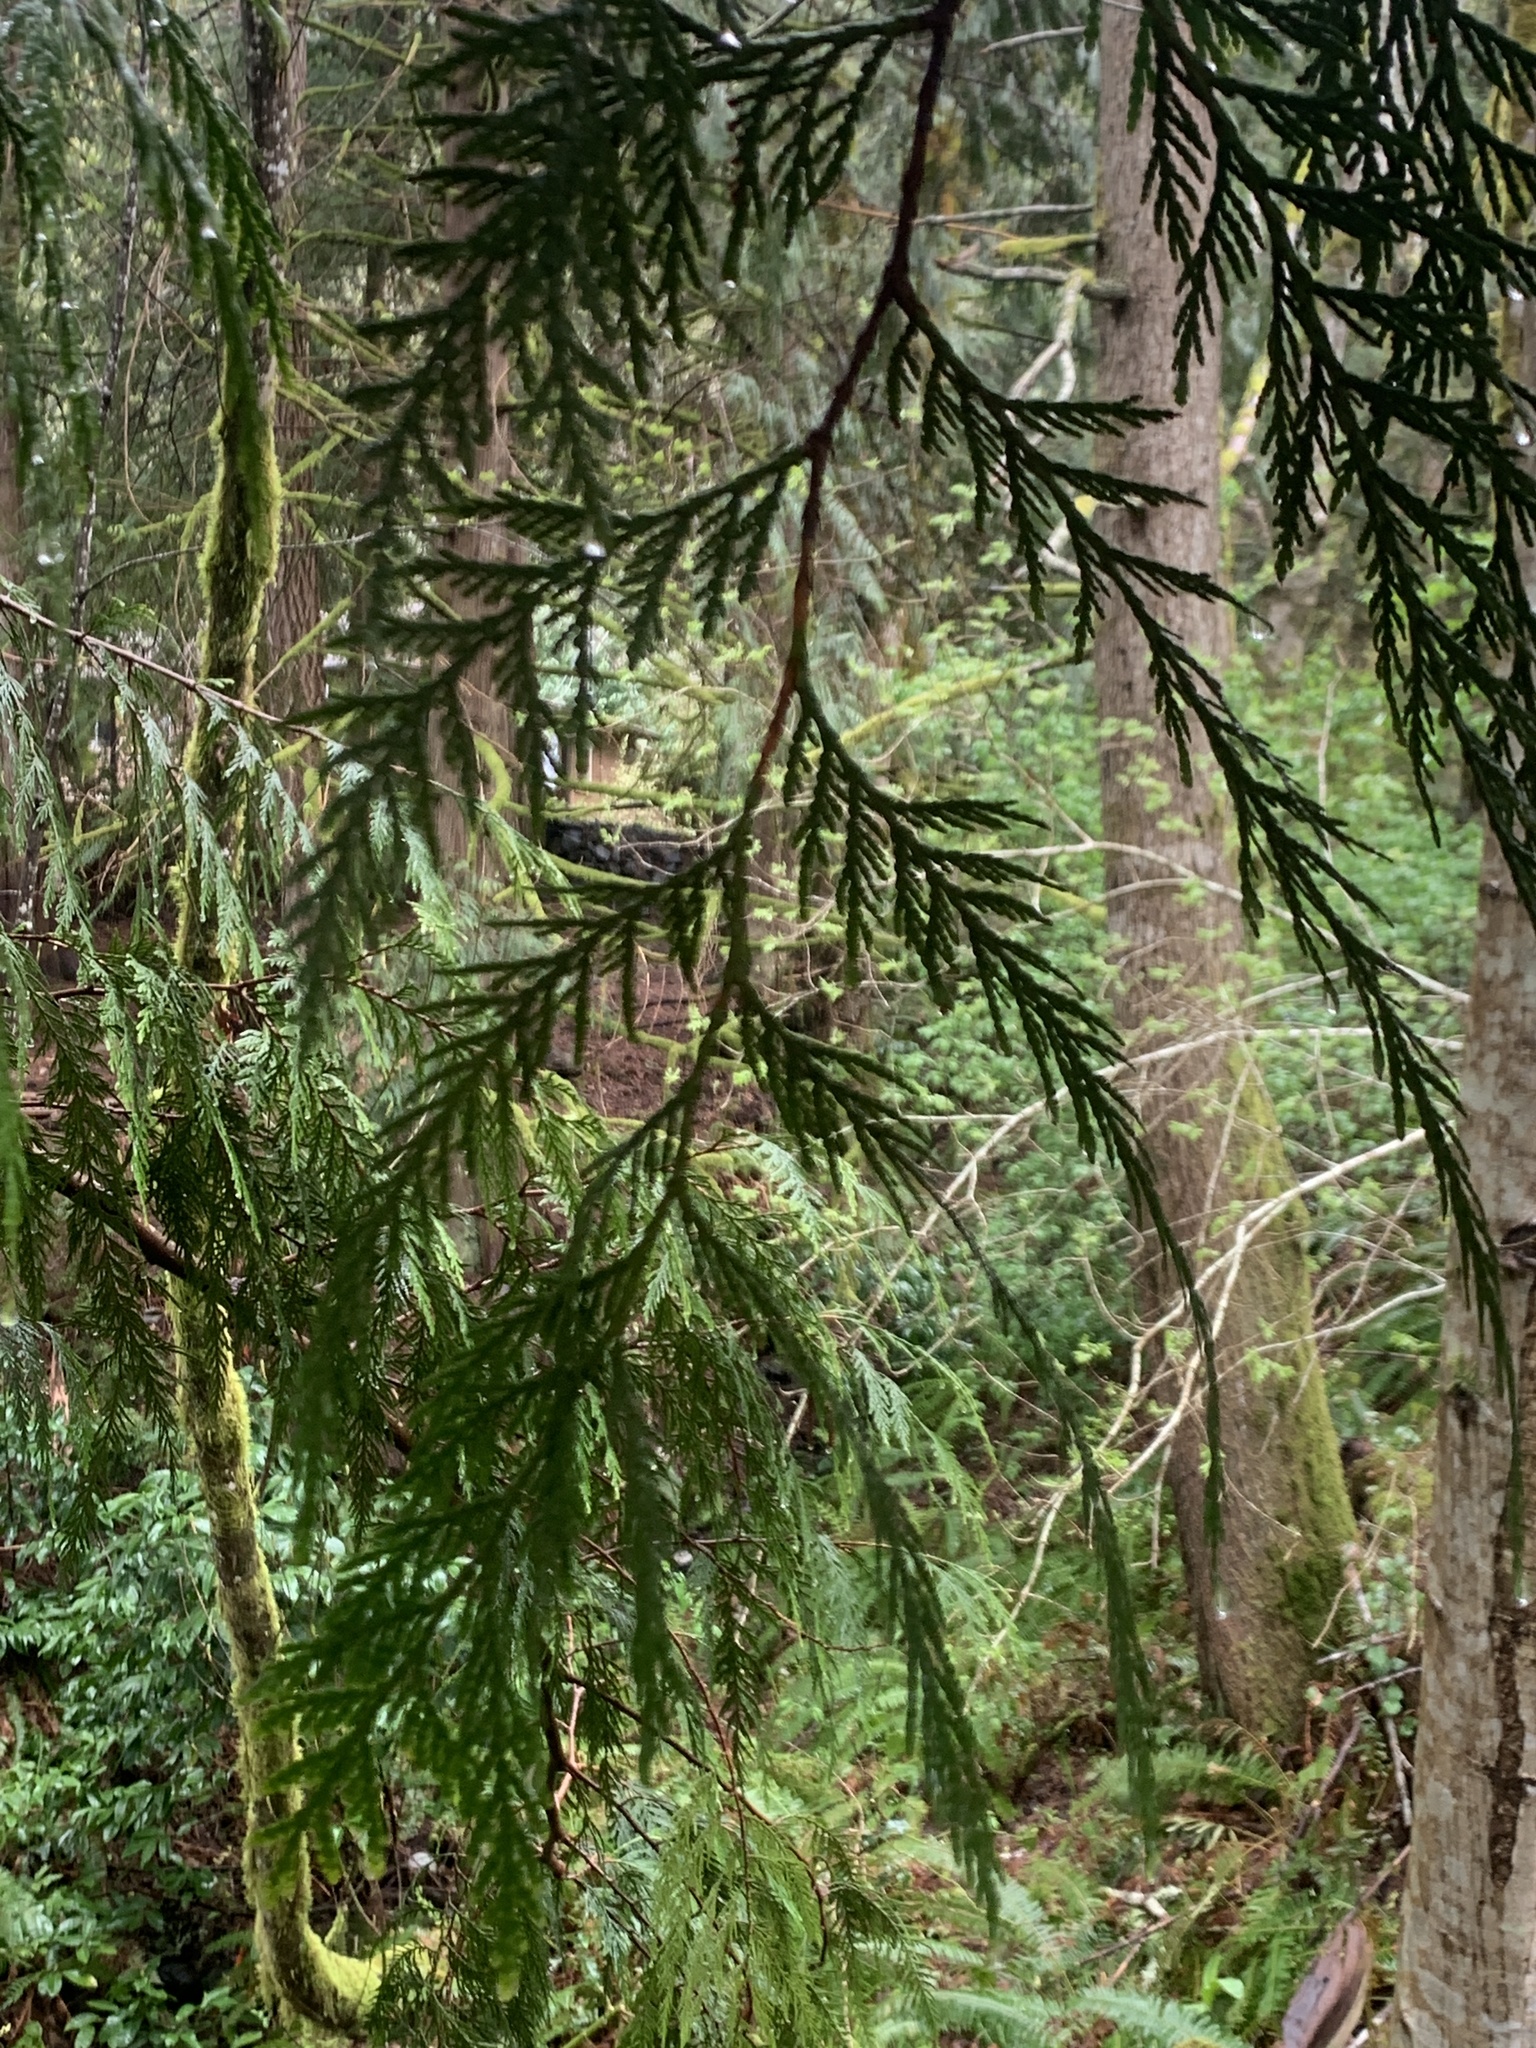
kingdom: Plantae
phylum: Tracheophyta
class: Pinopsida
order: Pinales
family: Cupressaceae
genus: Thuja
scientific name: Thuja plicata
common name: Western red-cedar
